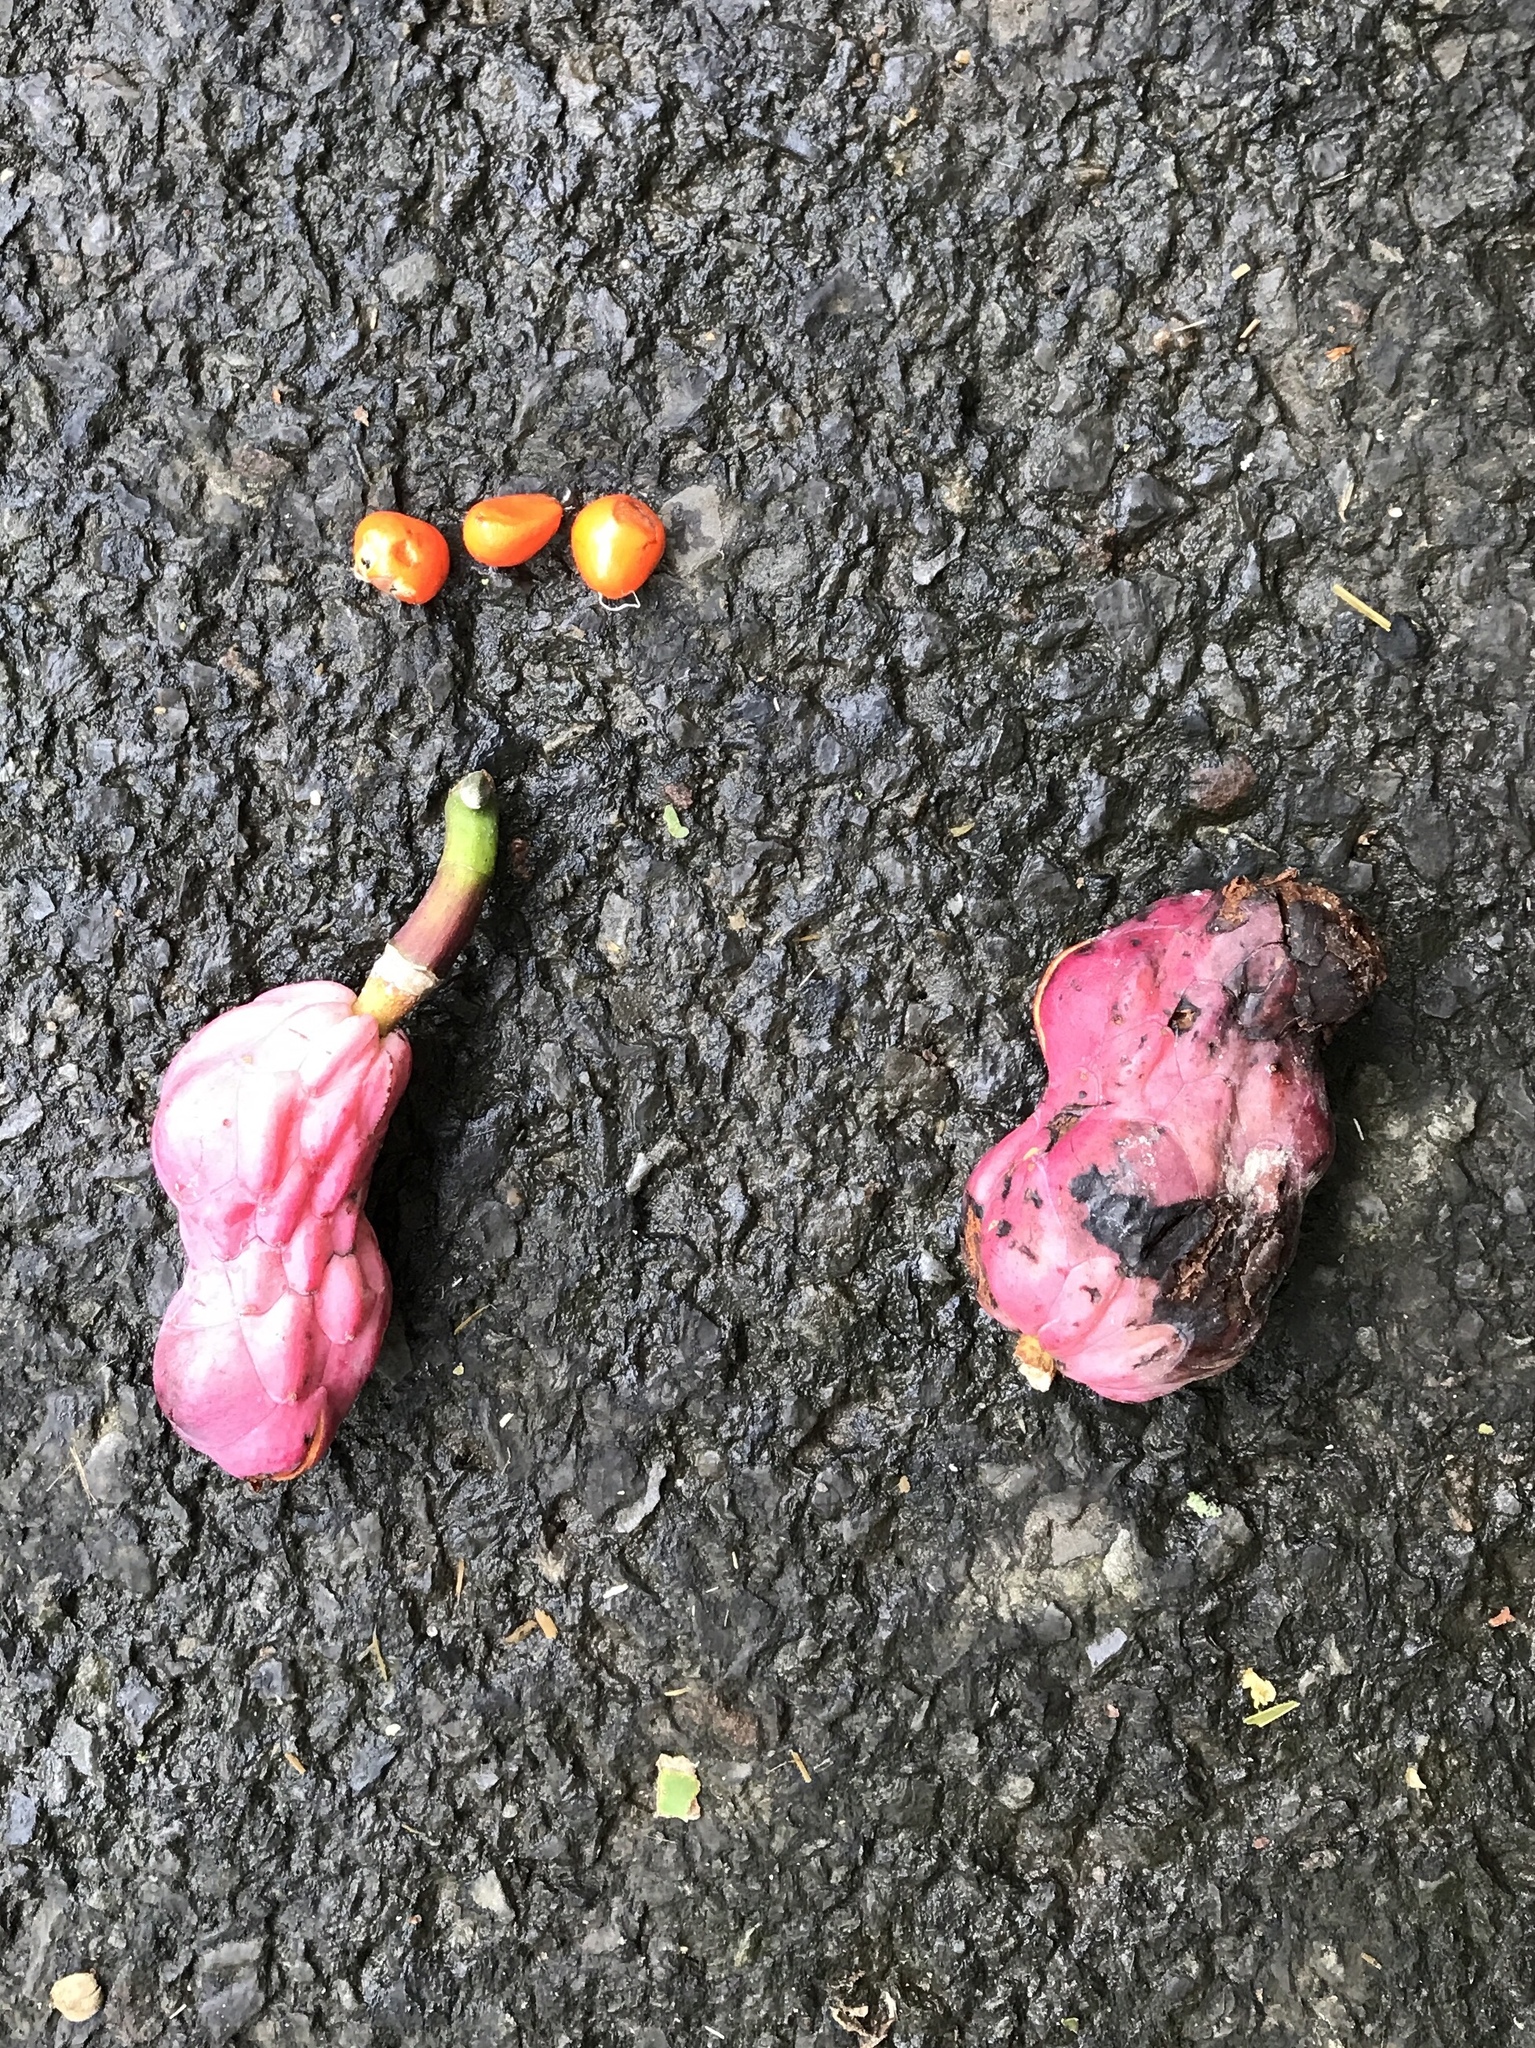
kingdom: Plantae
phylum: Tracheophyta
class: Magnoliopsida
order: Magnoliales
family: Magnoliaceae
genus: Magnolia
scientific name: Magnolia acuminata
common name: Cucumber magnolia
